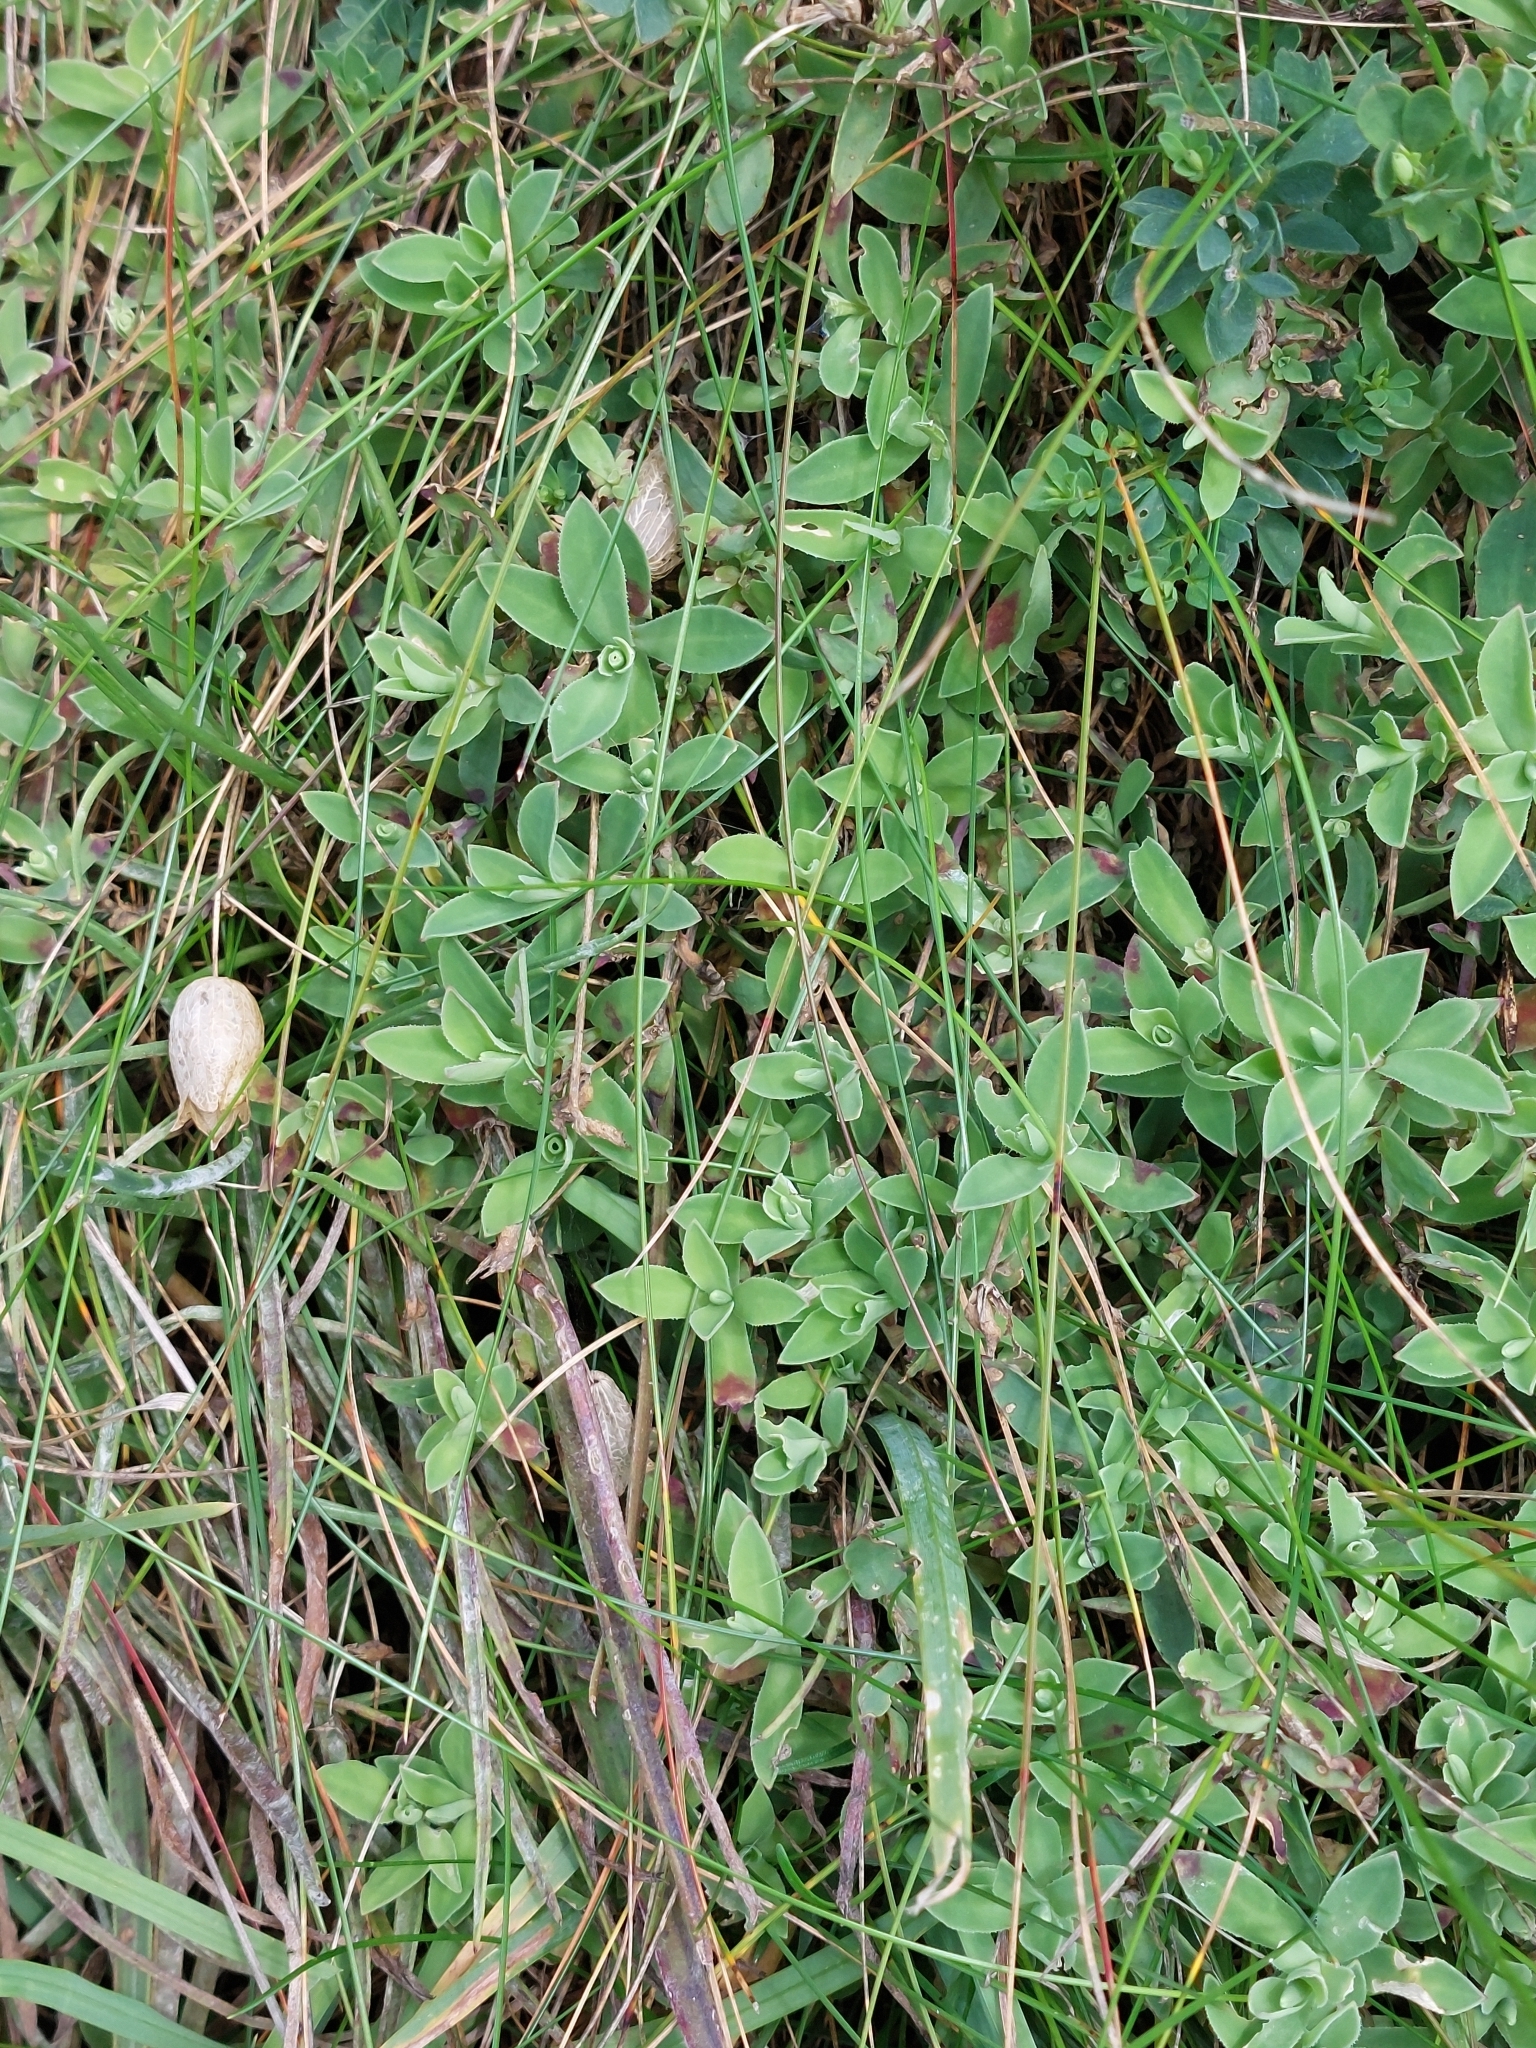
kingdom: Plantae
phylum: Tracheophyta
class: Magnoliopsida
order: Caryophyllales
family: Caryophyllaceae
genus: Silene
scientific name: Silene uniflora
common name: Sea campion
